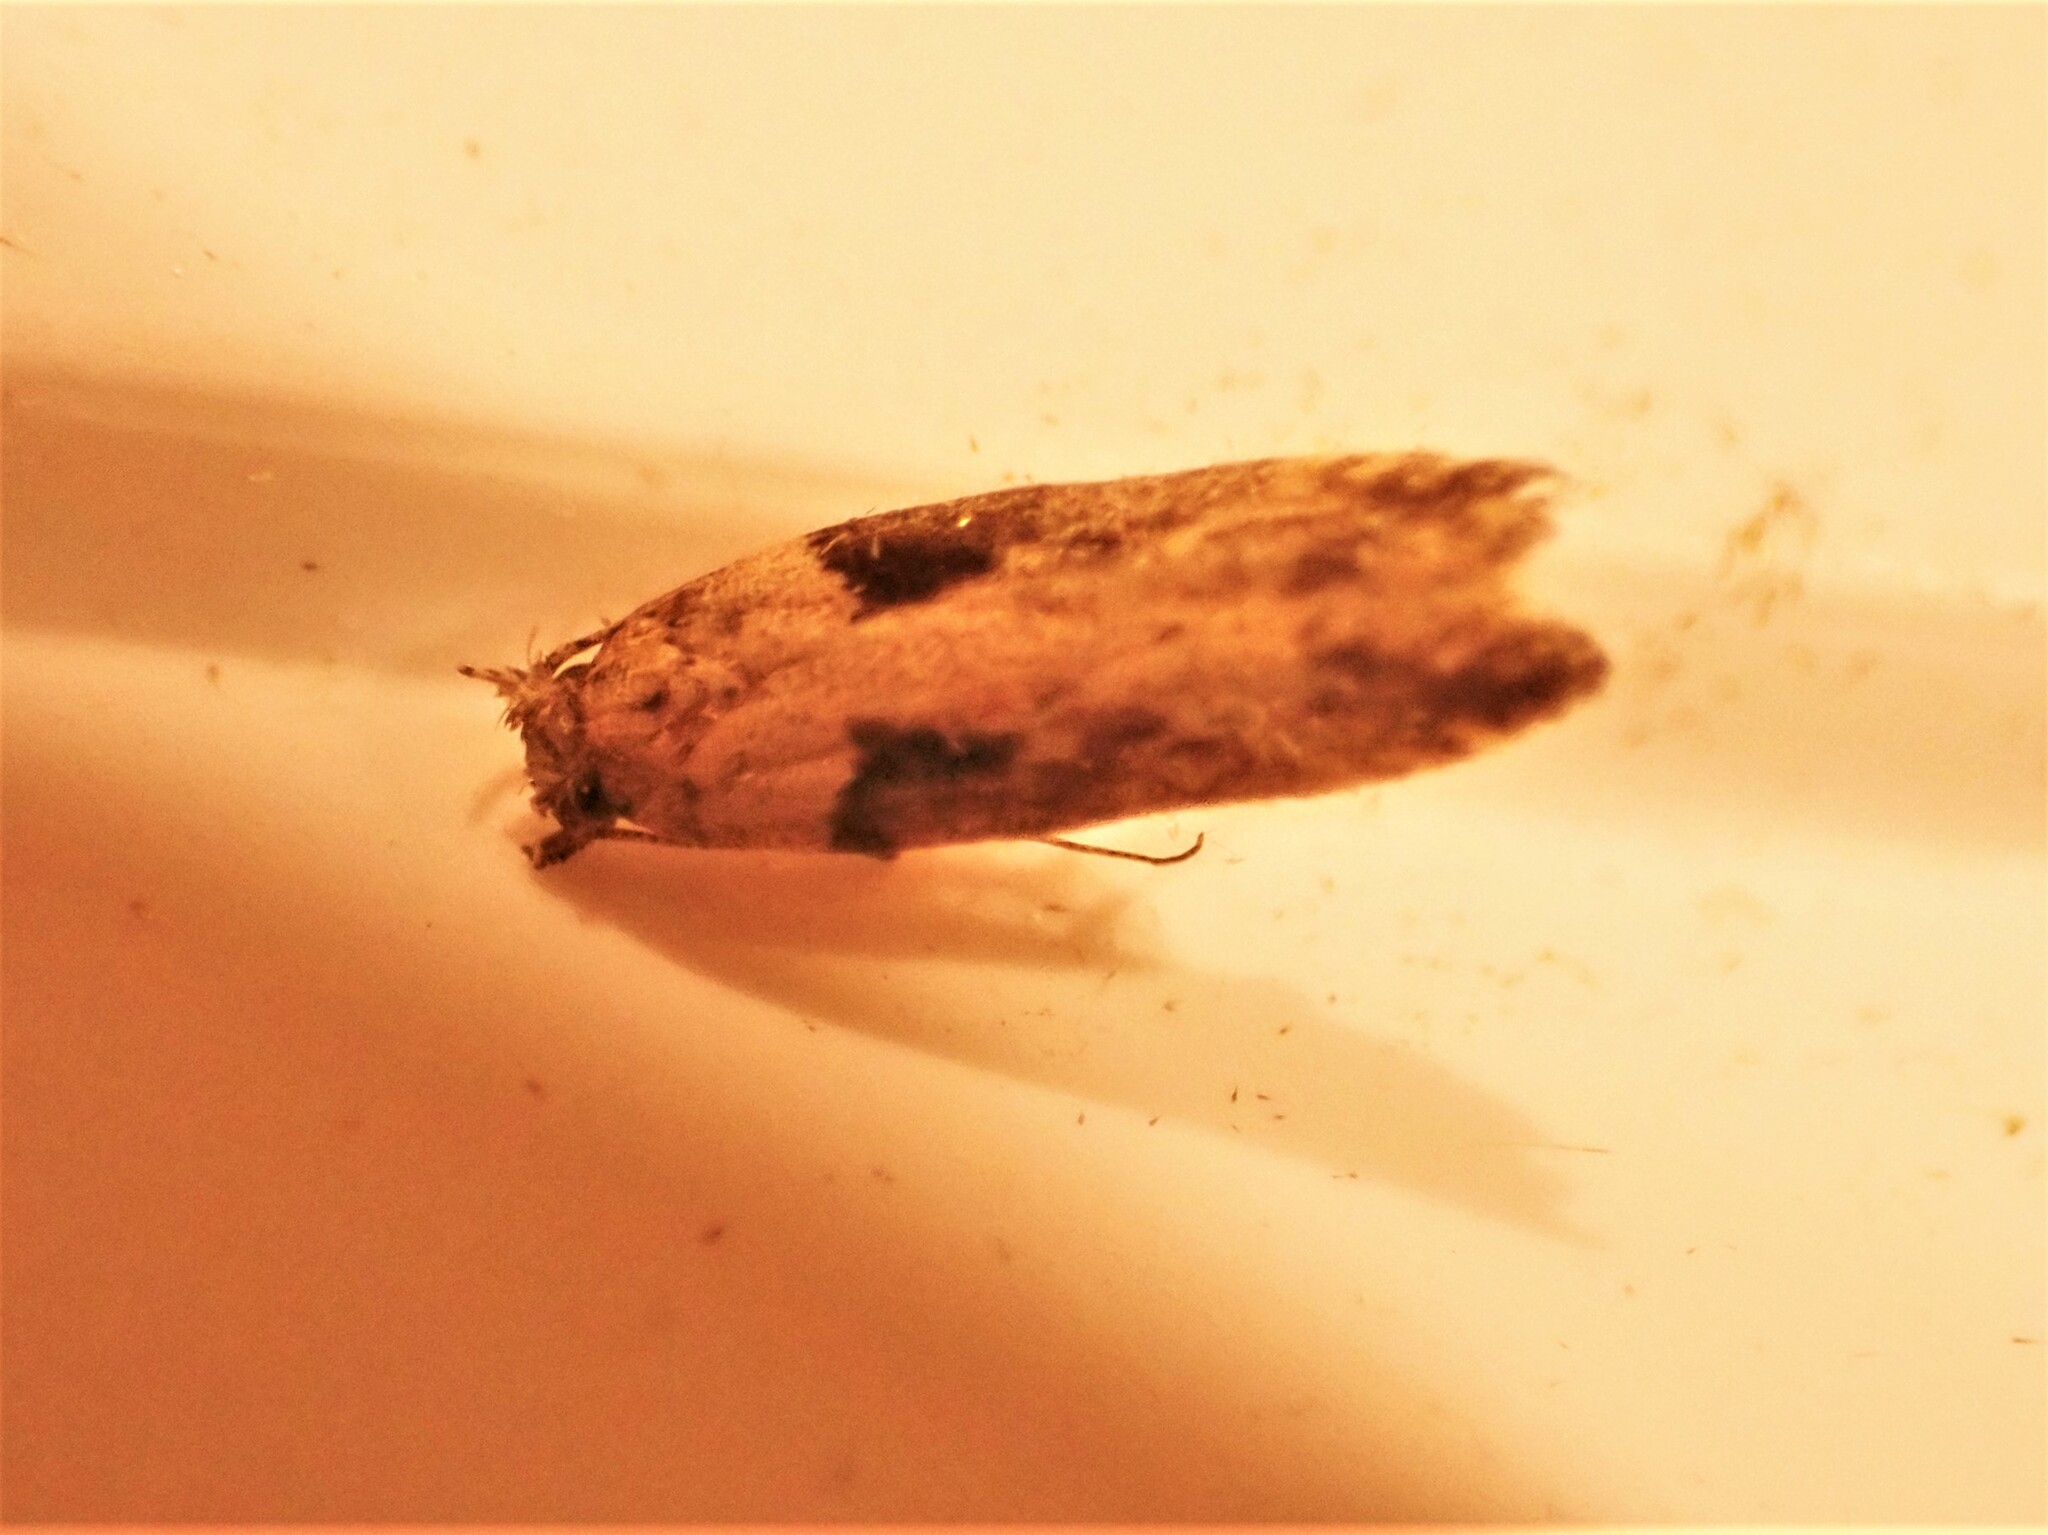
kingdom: Animalia
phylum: Arthropoda
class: Insecta
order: Lepidoptera
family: Gelechiidae
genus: Symmetrischema
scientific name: Symmetrischema tangolias
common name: Moth
